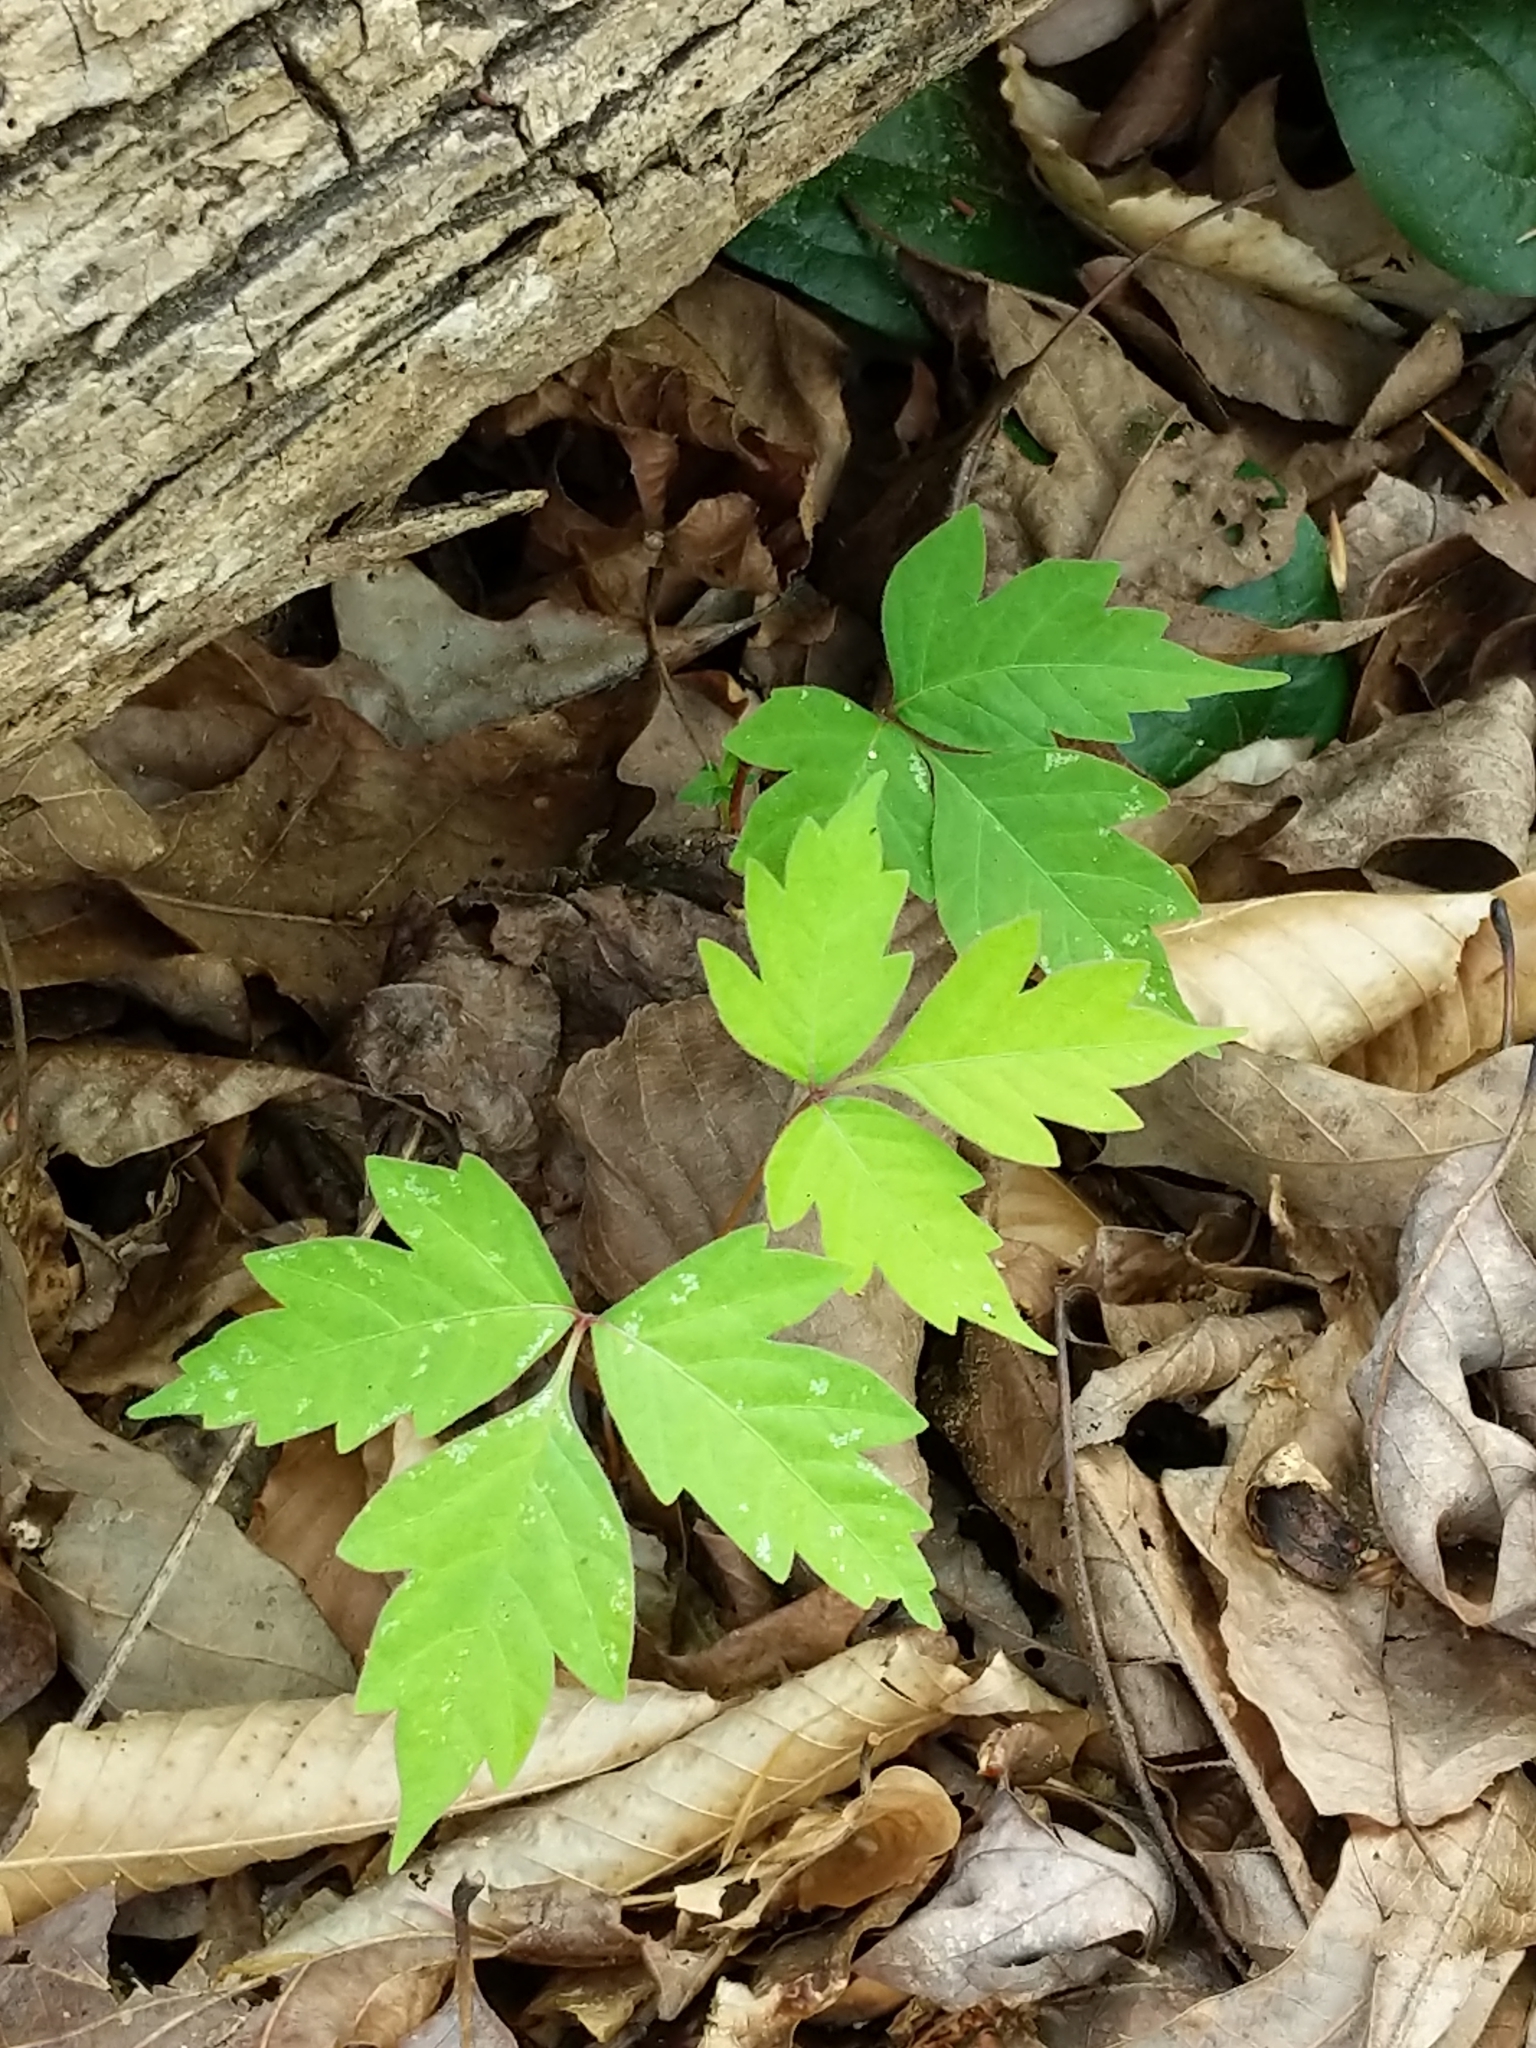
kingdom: Plantae
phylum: Tracheophyta
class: Magnoliopsida
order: Sapindales
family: Anacardiaceae
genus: Toxicodendron
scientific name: Toxicodendron radicans
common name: Poison ivy
